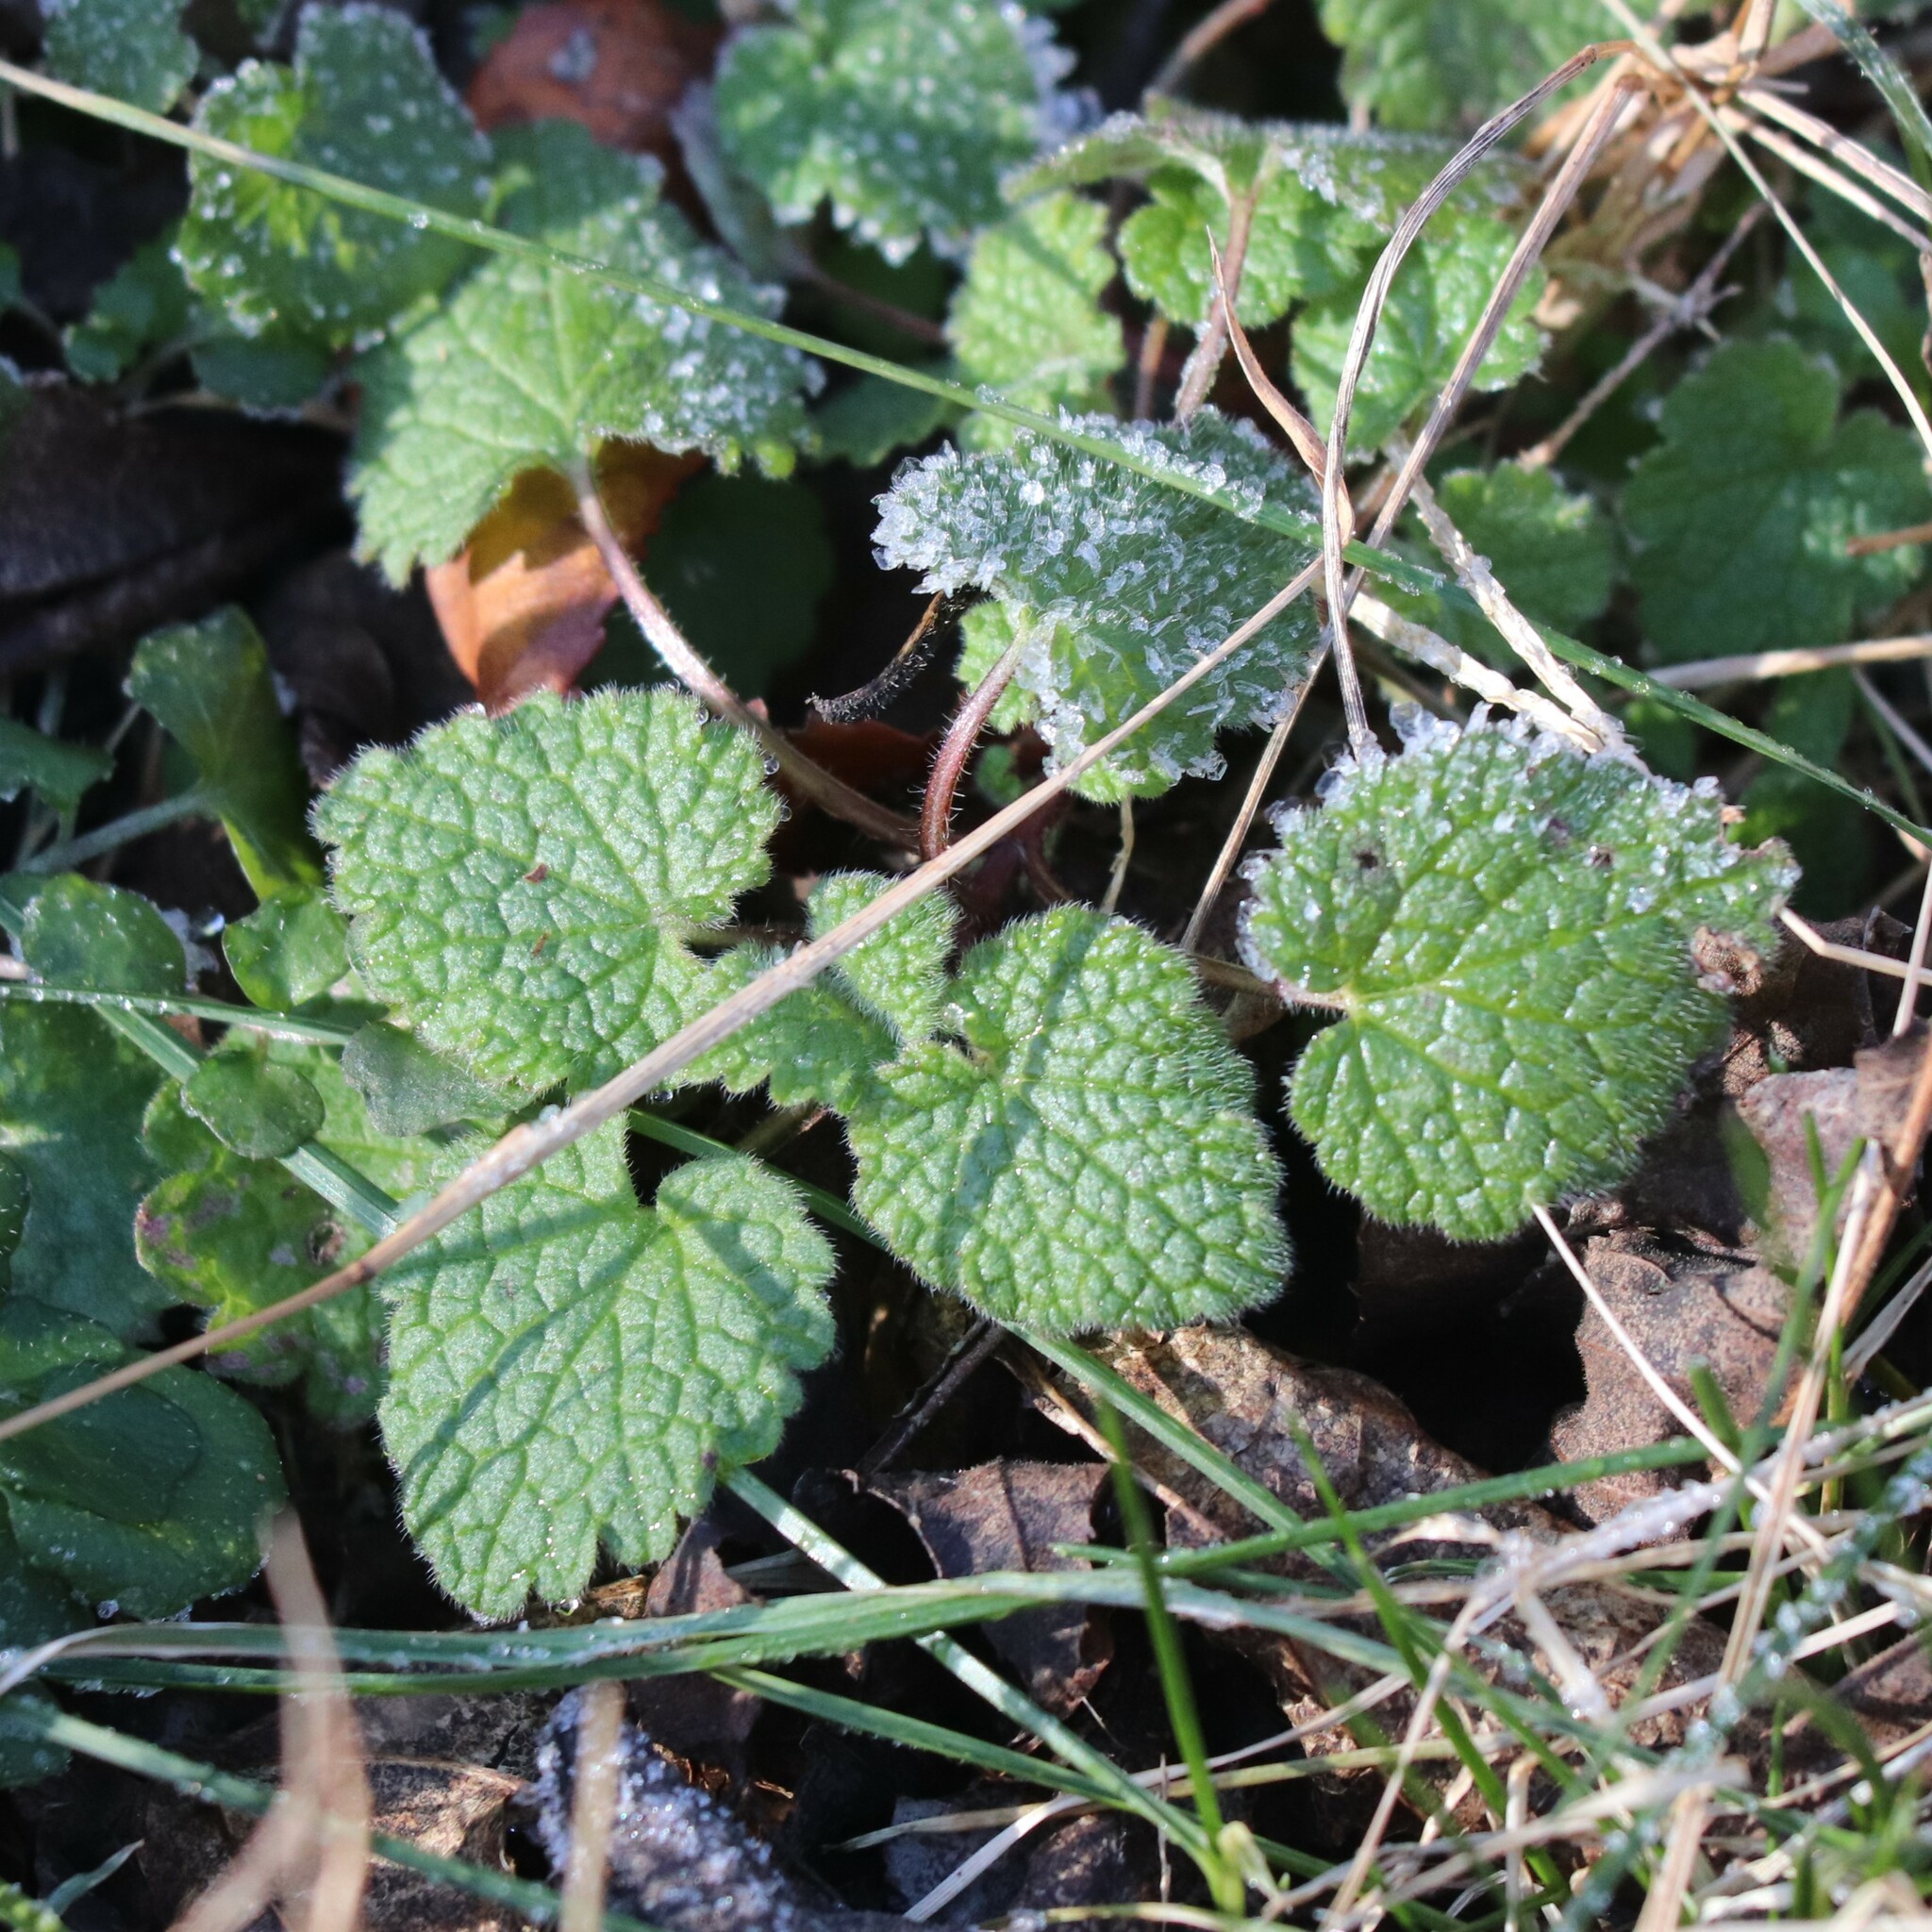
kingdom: Plantae
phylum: Tracheophyta
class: Magnoliopsida
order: Lamiales
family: Lamiaceae
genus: Lamium
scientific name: Lamium purpureum
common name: Red dead-nettle
